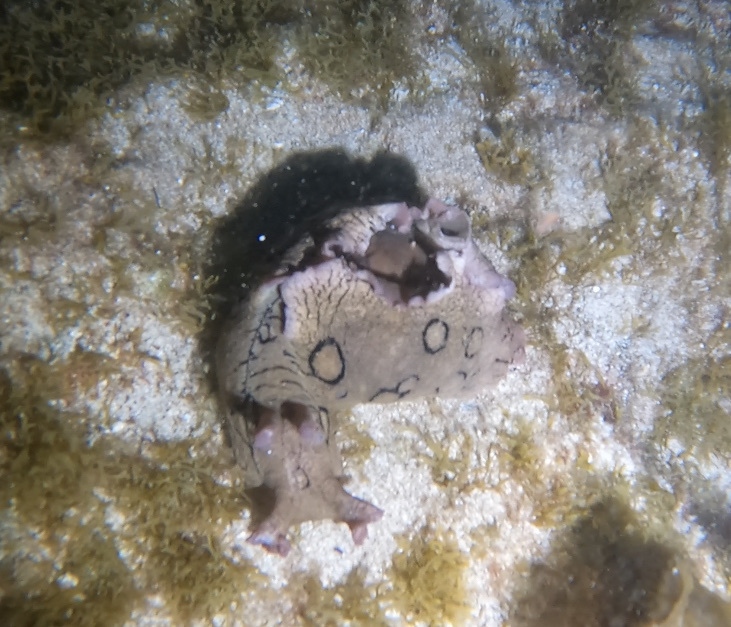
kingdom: Animalia
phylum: Mollusca
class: Gastropoda
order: Aplysiida
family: Aplysiidae
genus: Aplysia
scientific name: Aplysia dactylomela
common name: Large-spotted sea hare
